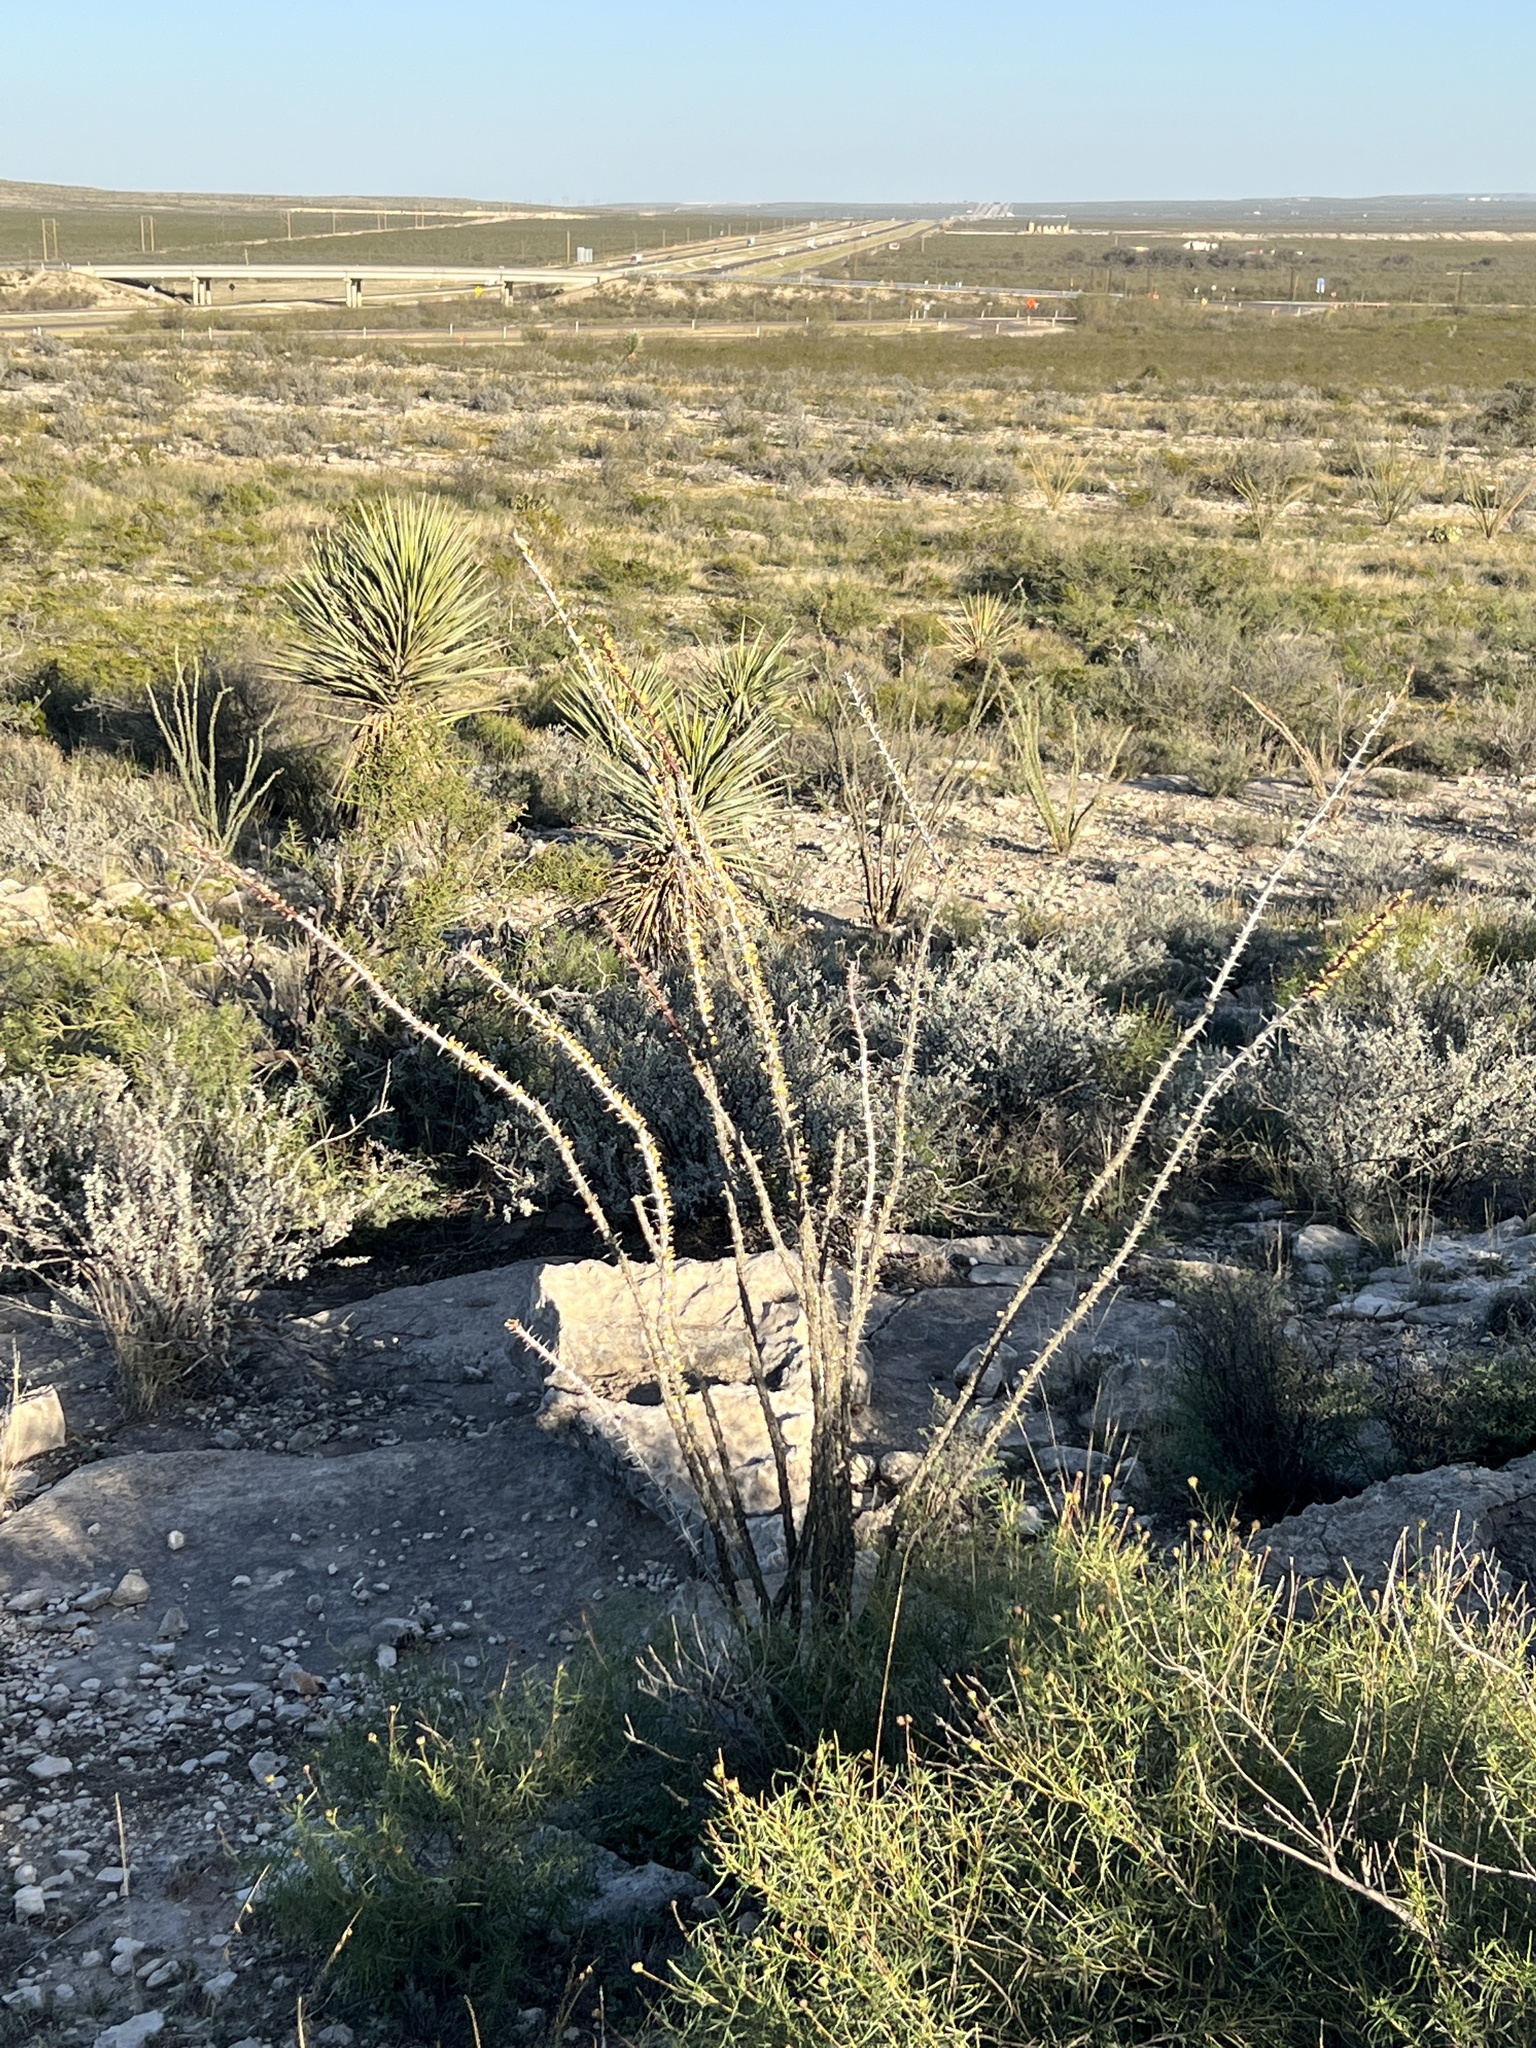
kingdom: Plantae
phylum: Tracheophyta
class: Magnoliopsida
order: Ericales
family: Fouquieriaceae
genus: Fouquieria
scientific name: Fouquieria splendens
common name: Vine-cactus
